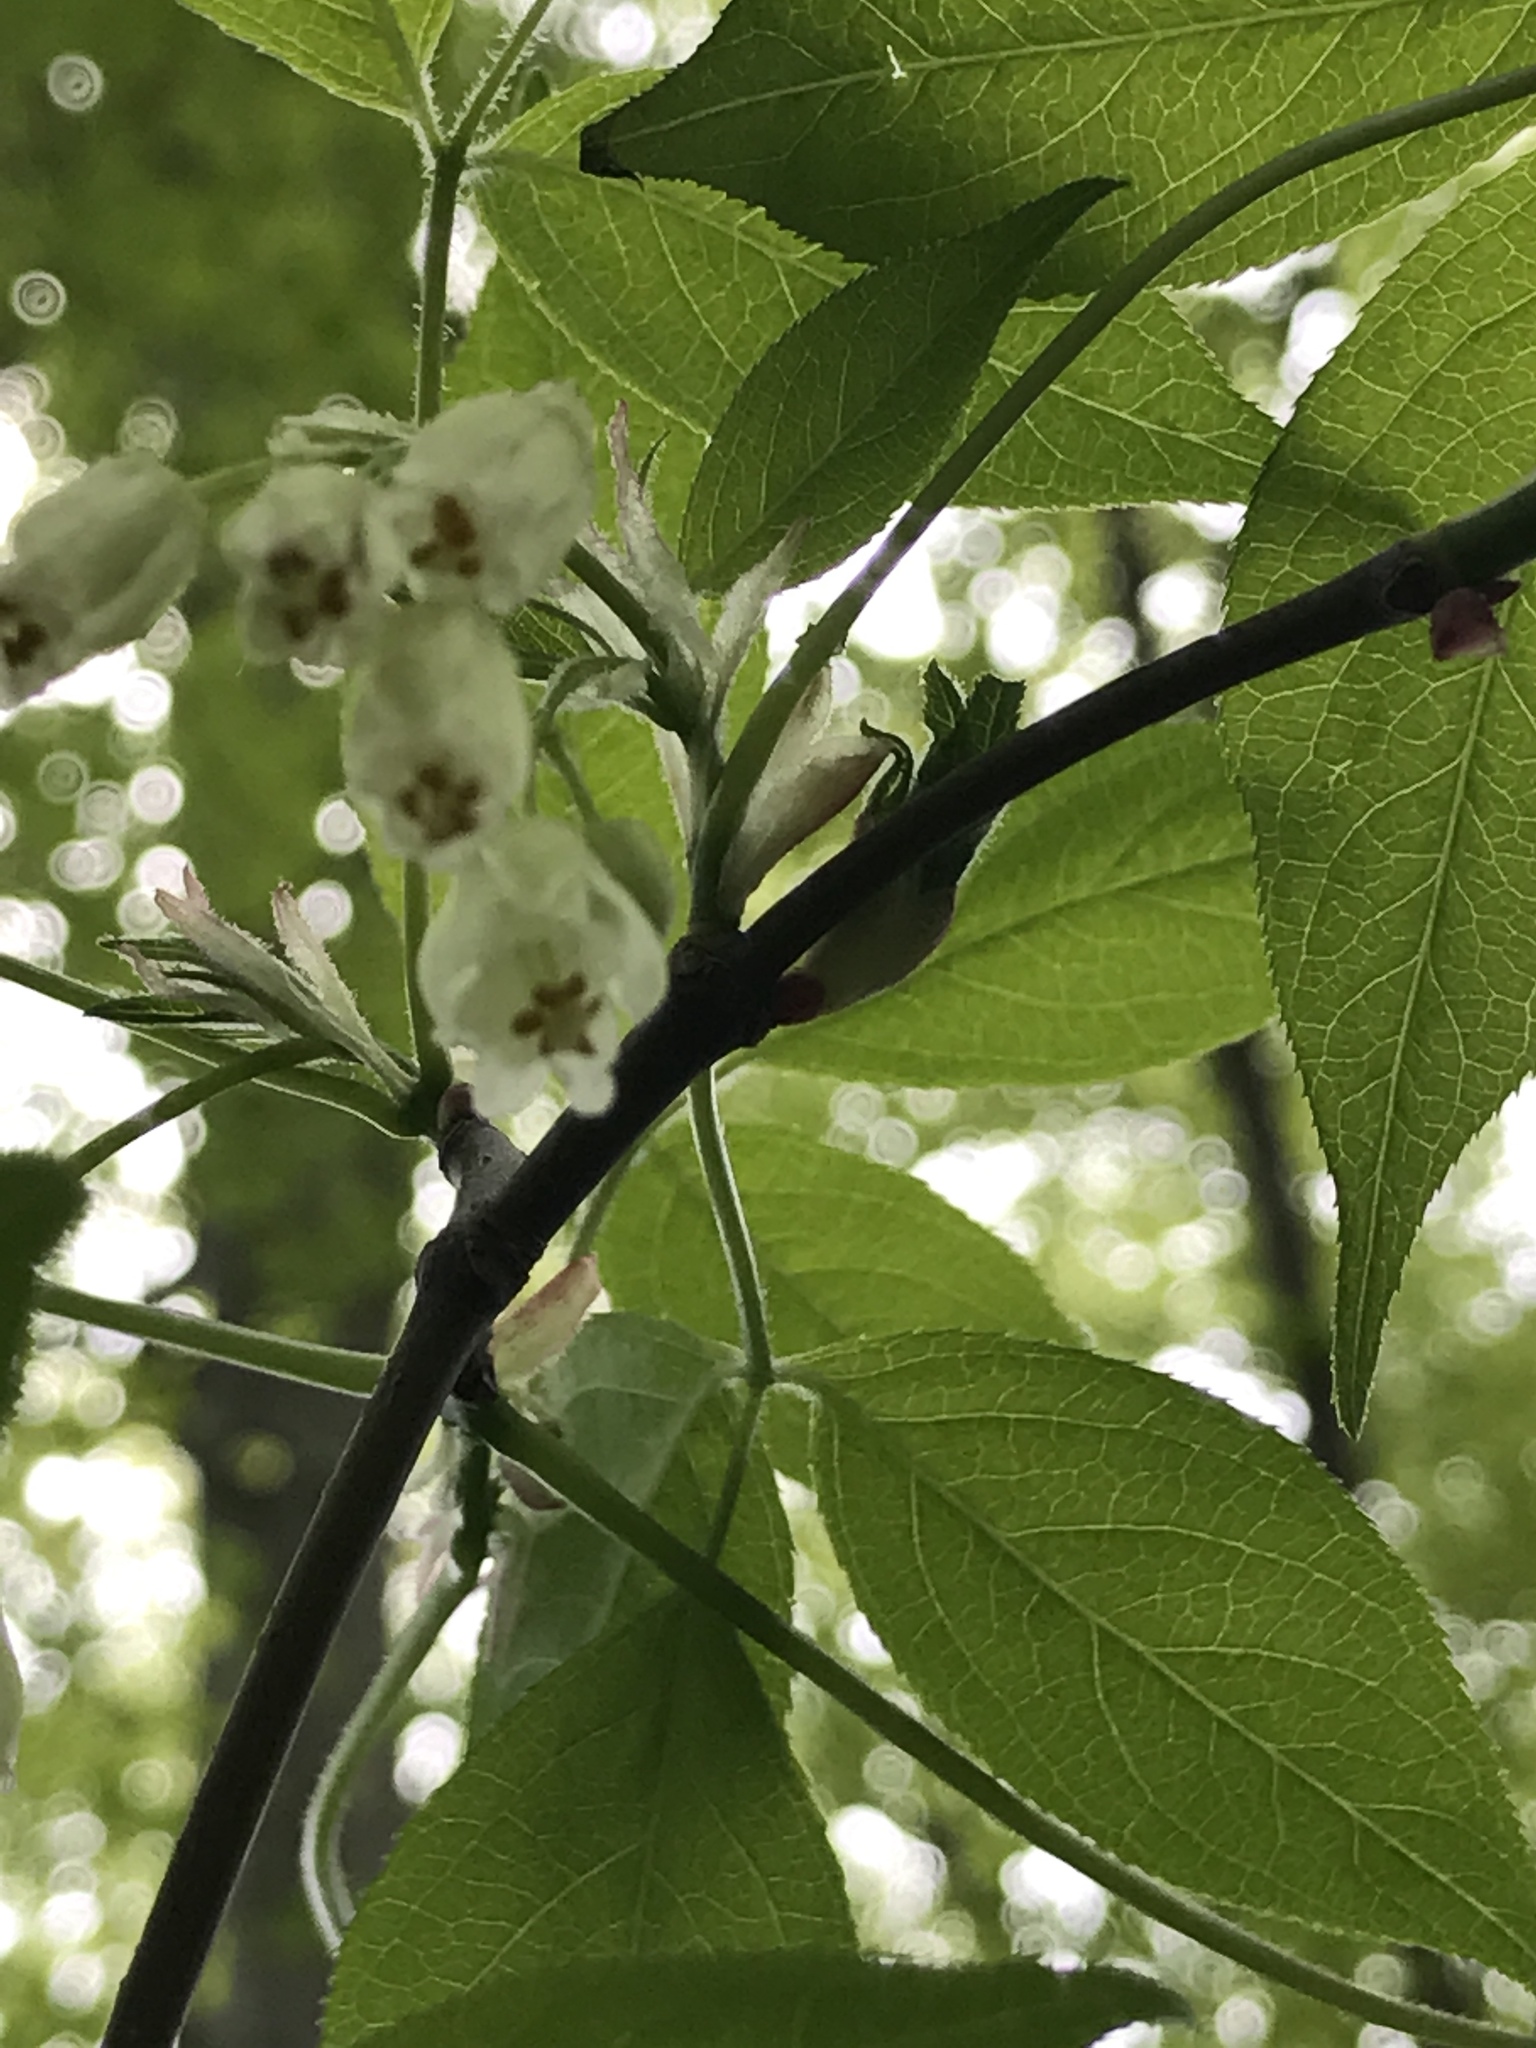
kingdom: Plantae
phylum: Tracheophyta
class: Magnoliopsida
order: Crossosomatales
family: Staphyleaceae
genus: Staphylea
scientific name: Staphylea trifolia
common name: American bladdernut
